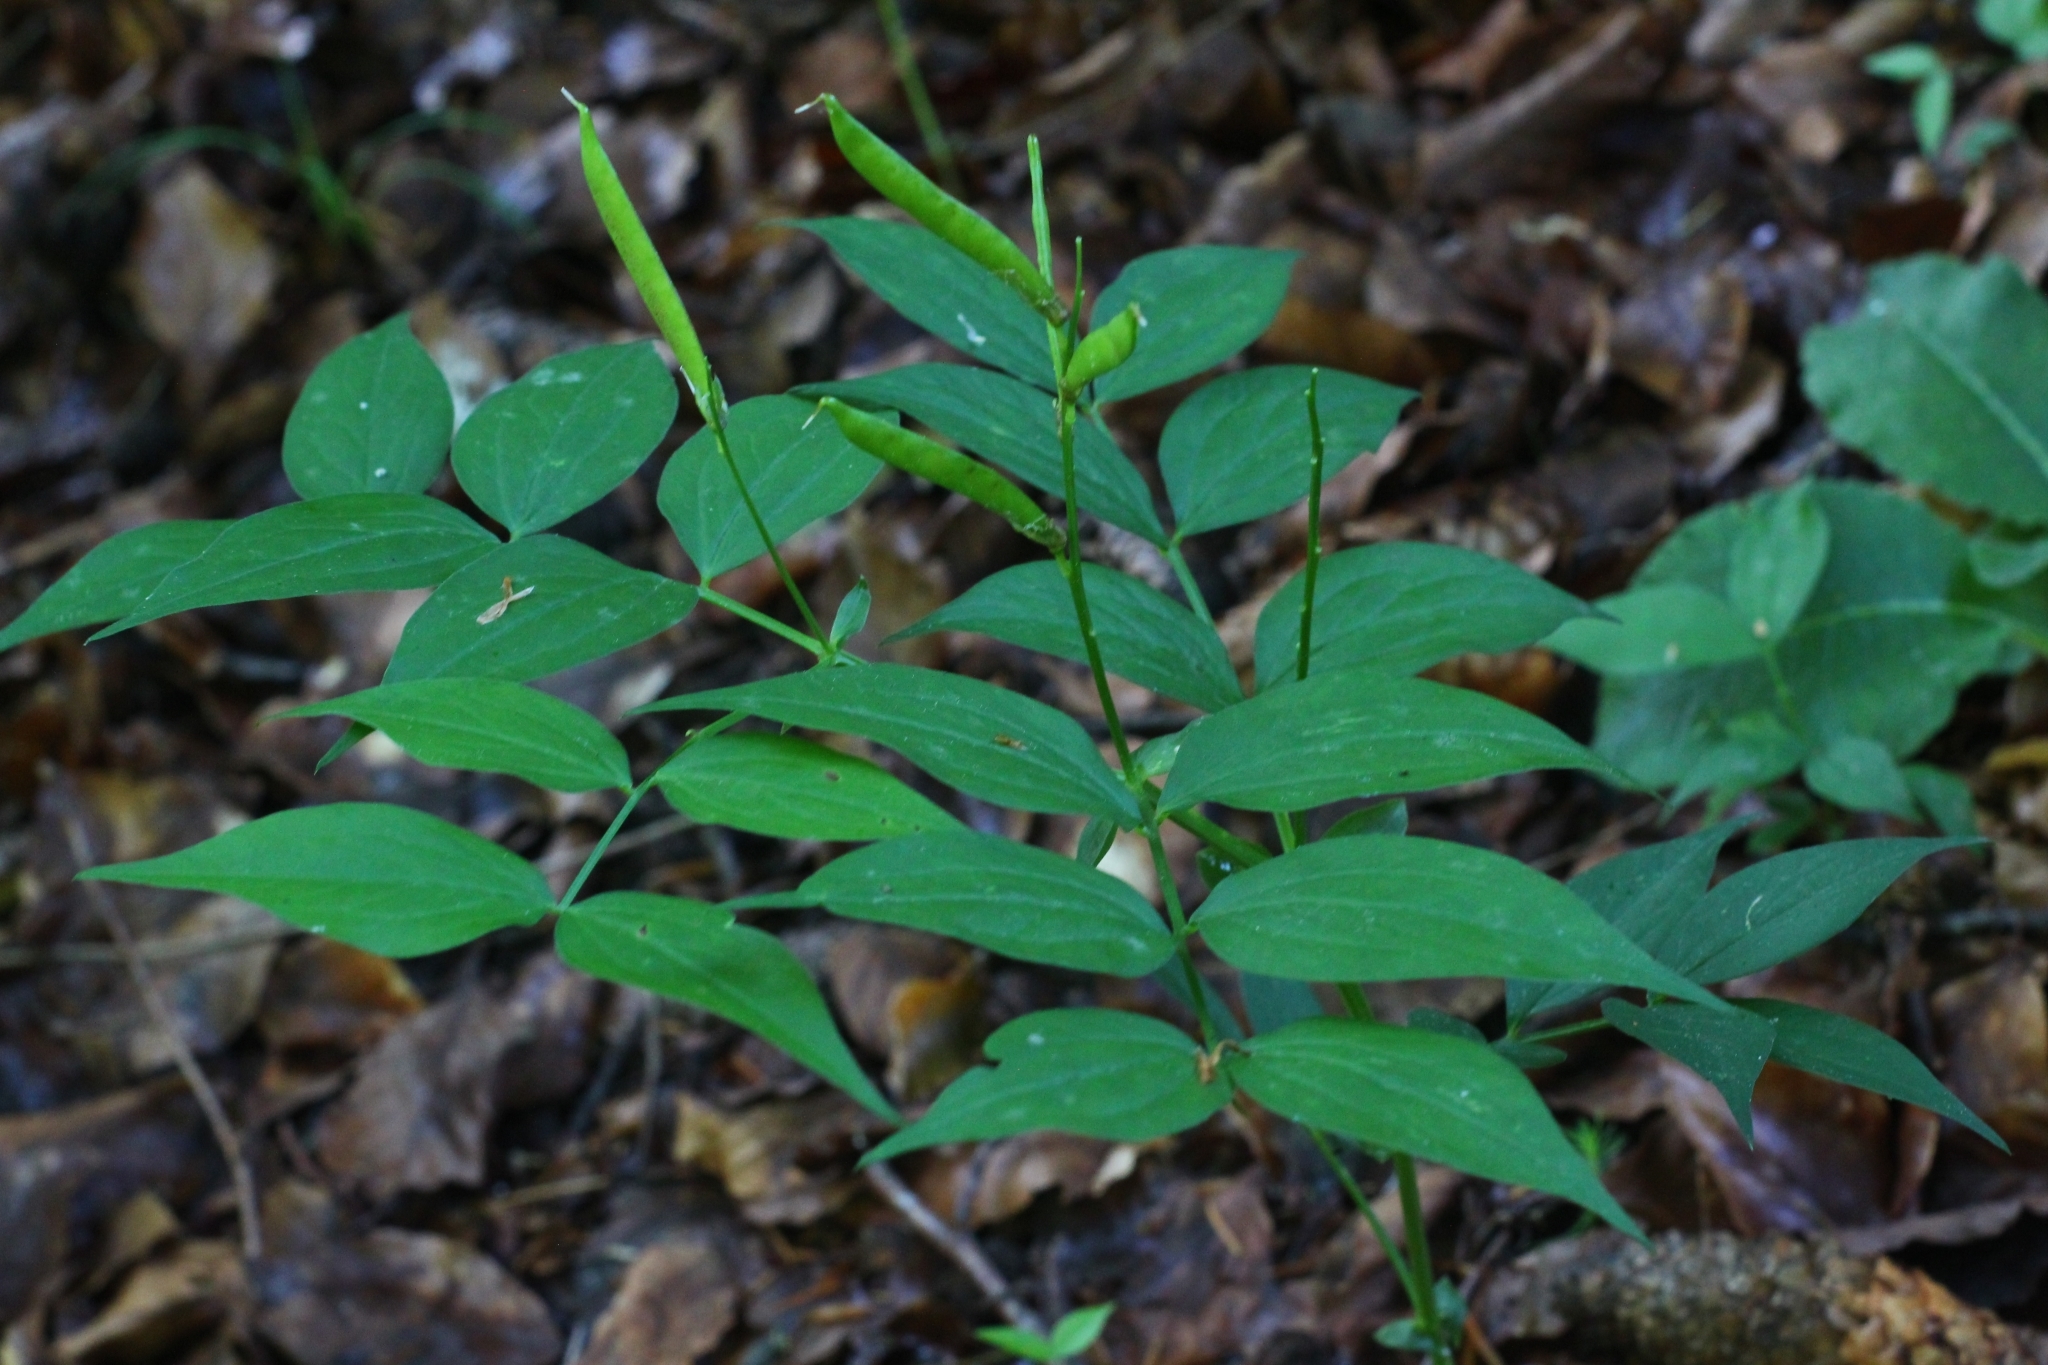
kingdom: Plantae
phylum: Tracheophyta
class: Magnoliopsida
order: Fabales
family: Fabaceae
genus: Lathyrus
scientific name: Lathyrus vernus
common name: Spring pea
